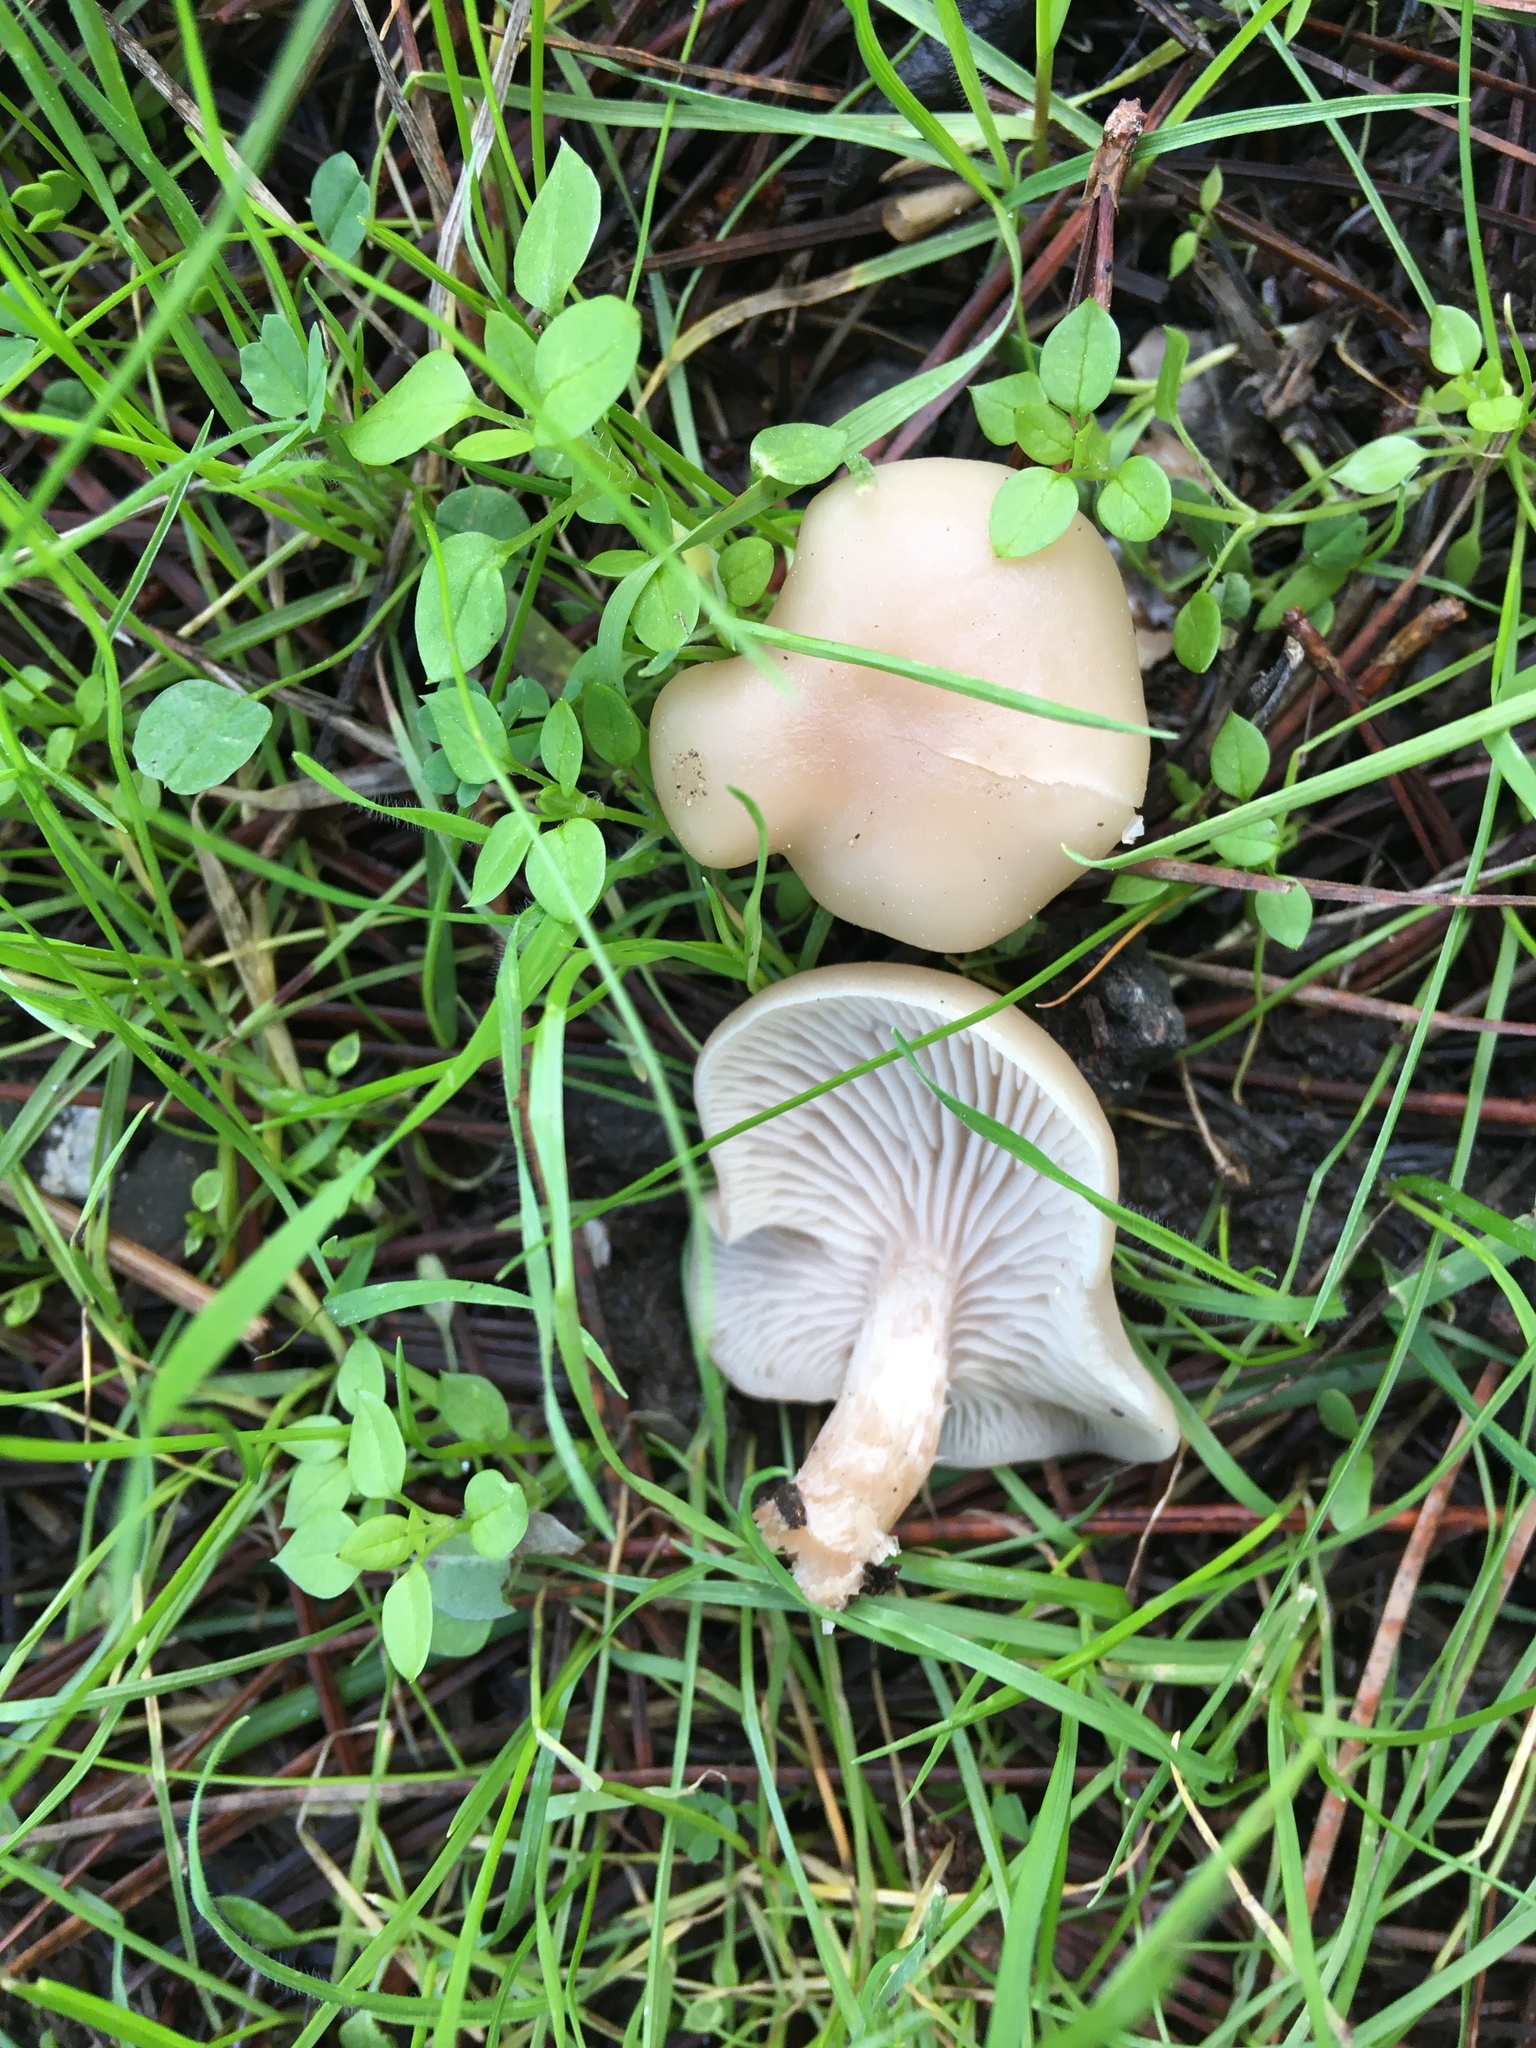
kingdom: Fungi
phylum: Basidiomycota
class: Agaricomycetes
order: Agaricales
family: Tricholomataceae
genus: Clitocybe
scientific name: Clitocybe fragrans
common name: Fragrant funnel
